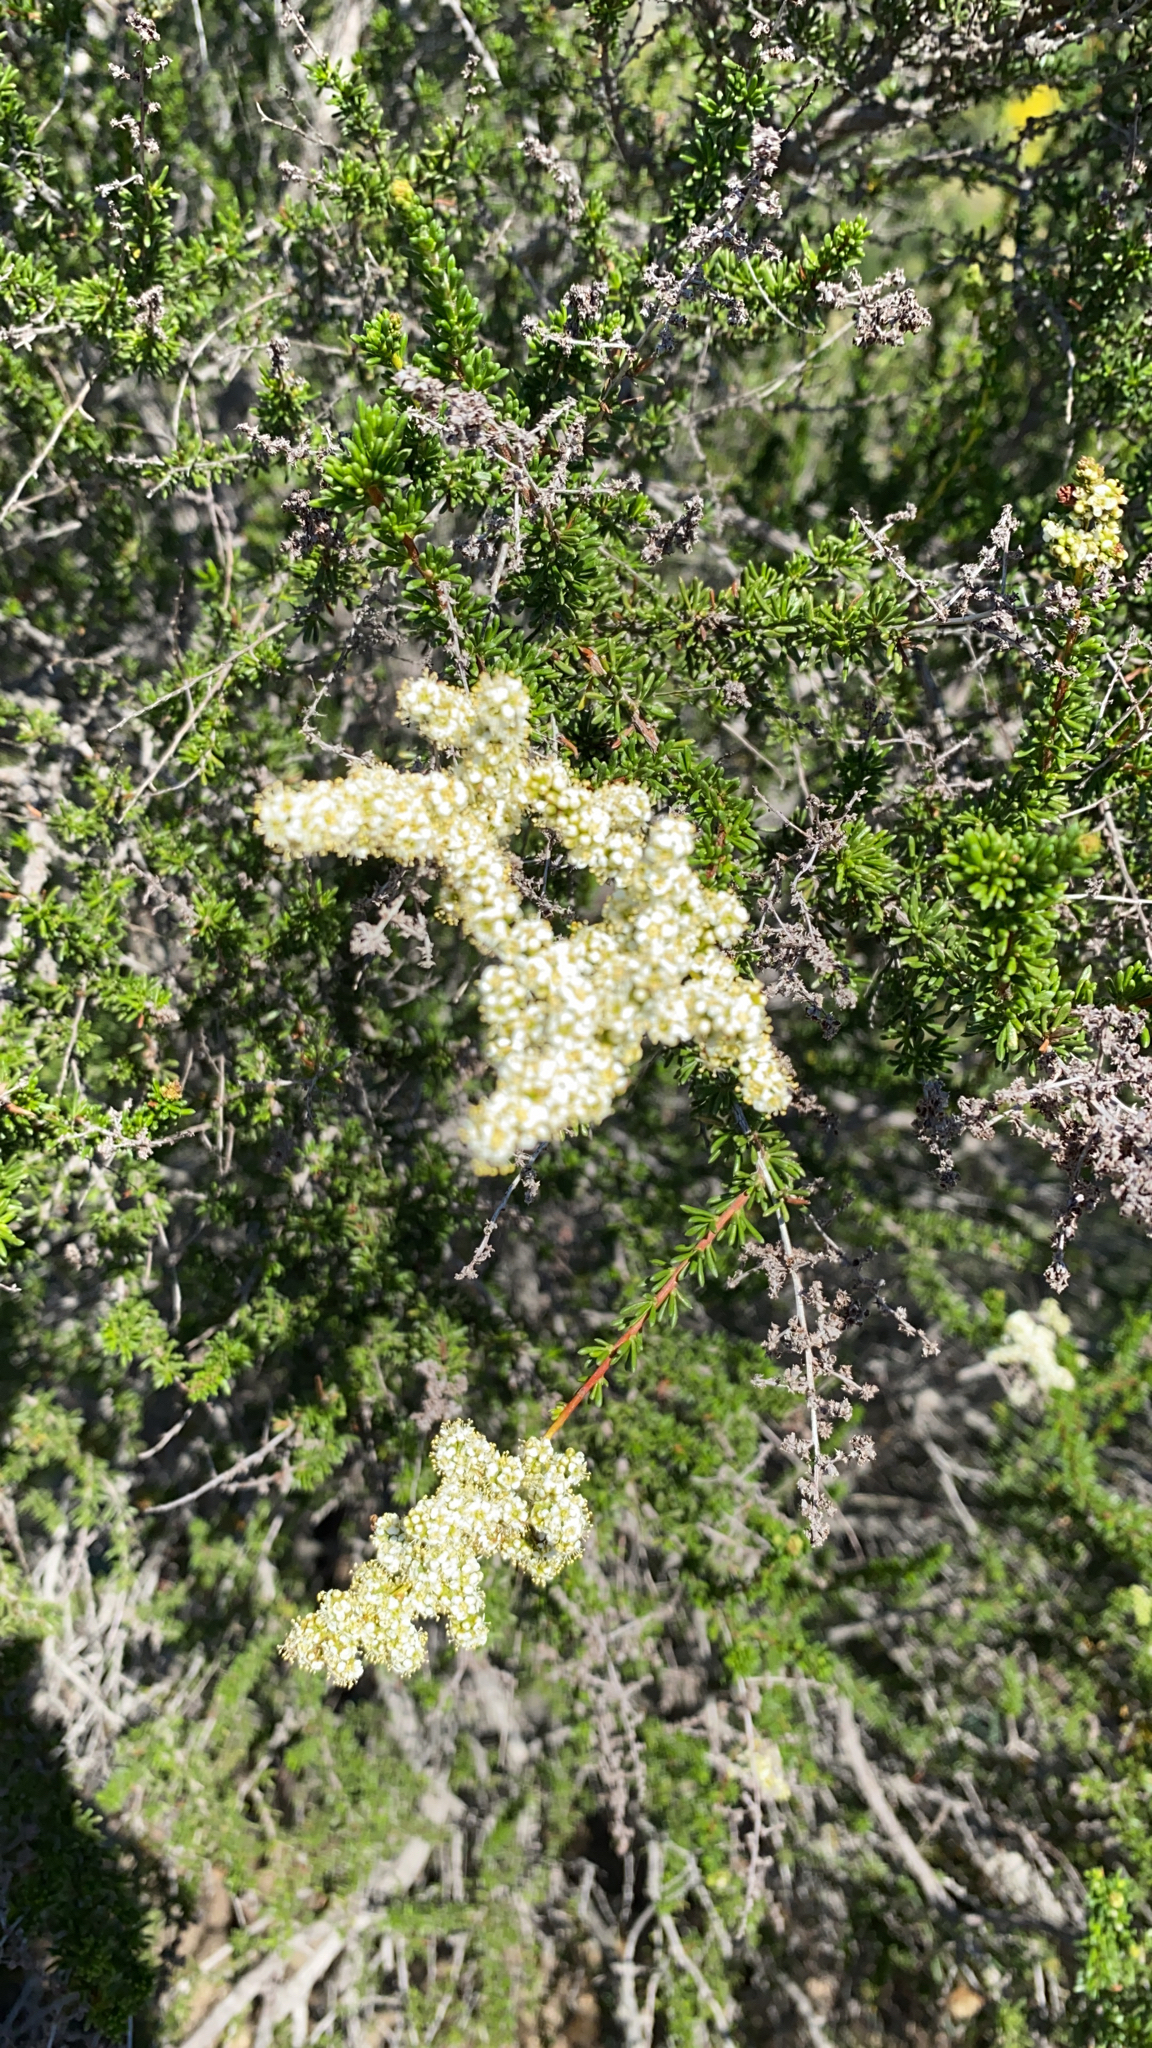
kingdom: Plantae
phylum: Tracheophyta
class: Magnoliopsida
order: Rosales
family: Rosaceae
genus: Adenostoma
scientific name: Adenostoma fasciculatum
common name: Chamise
